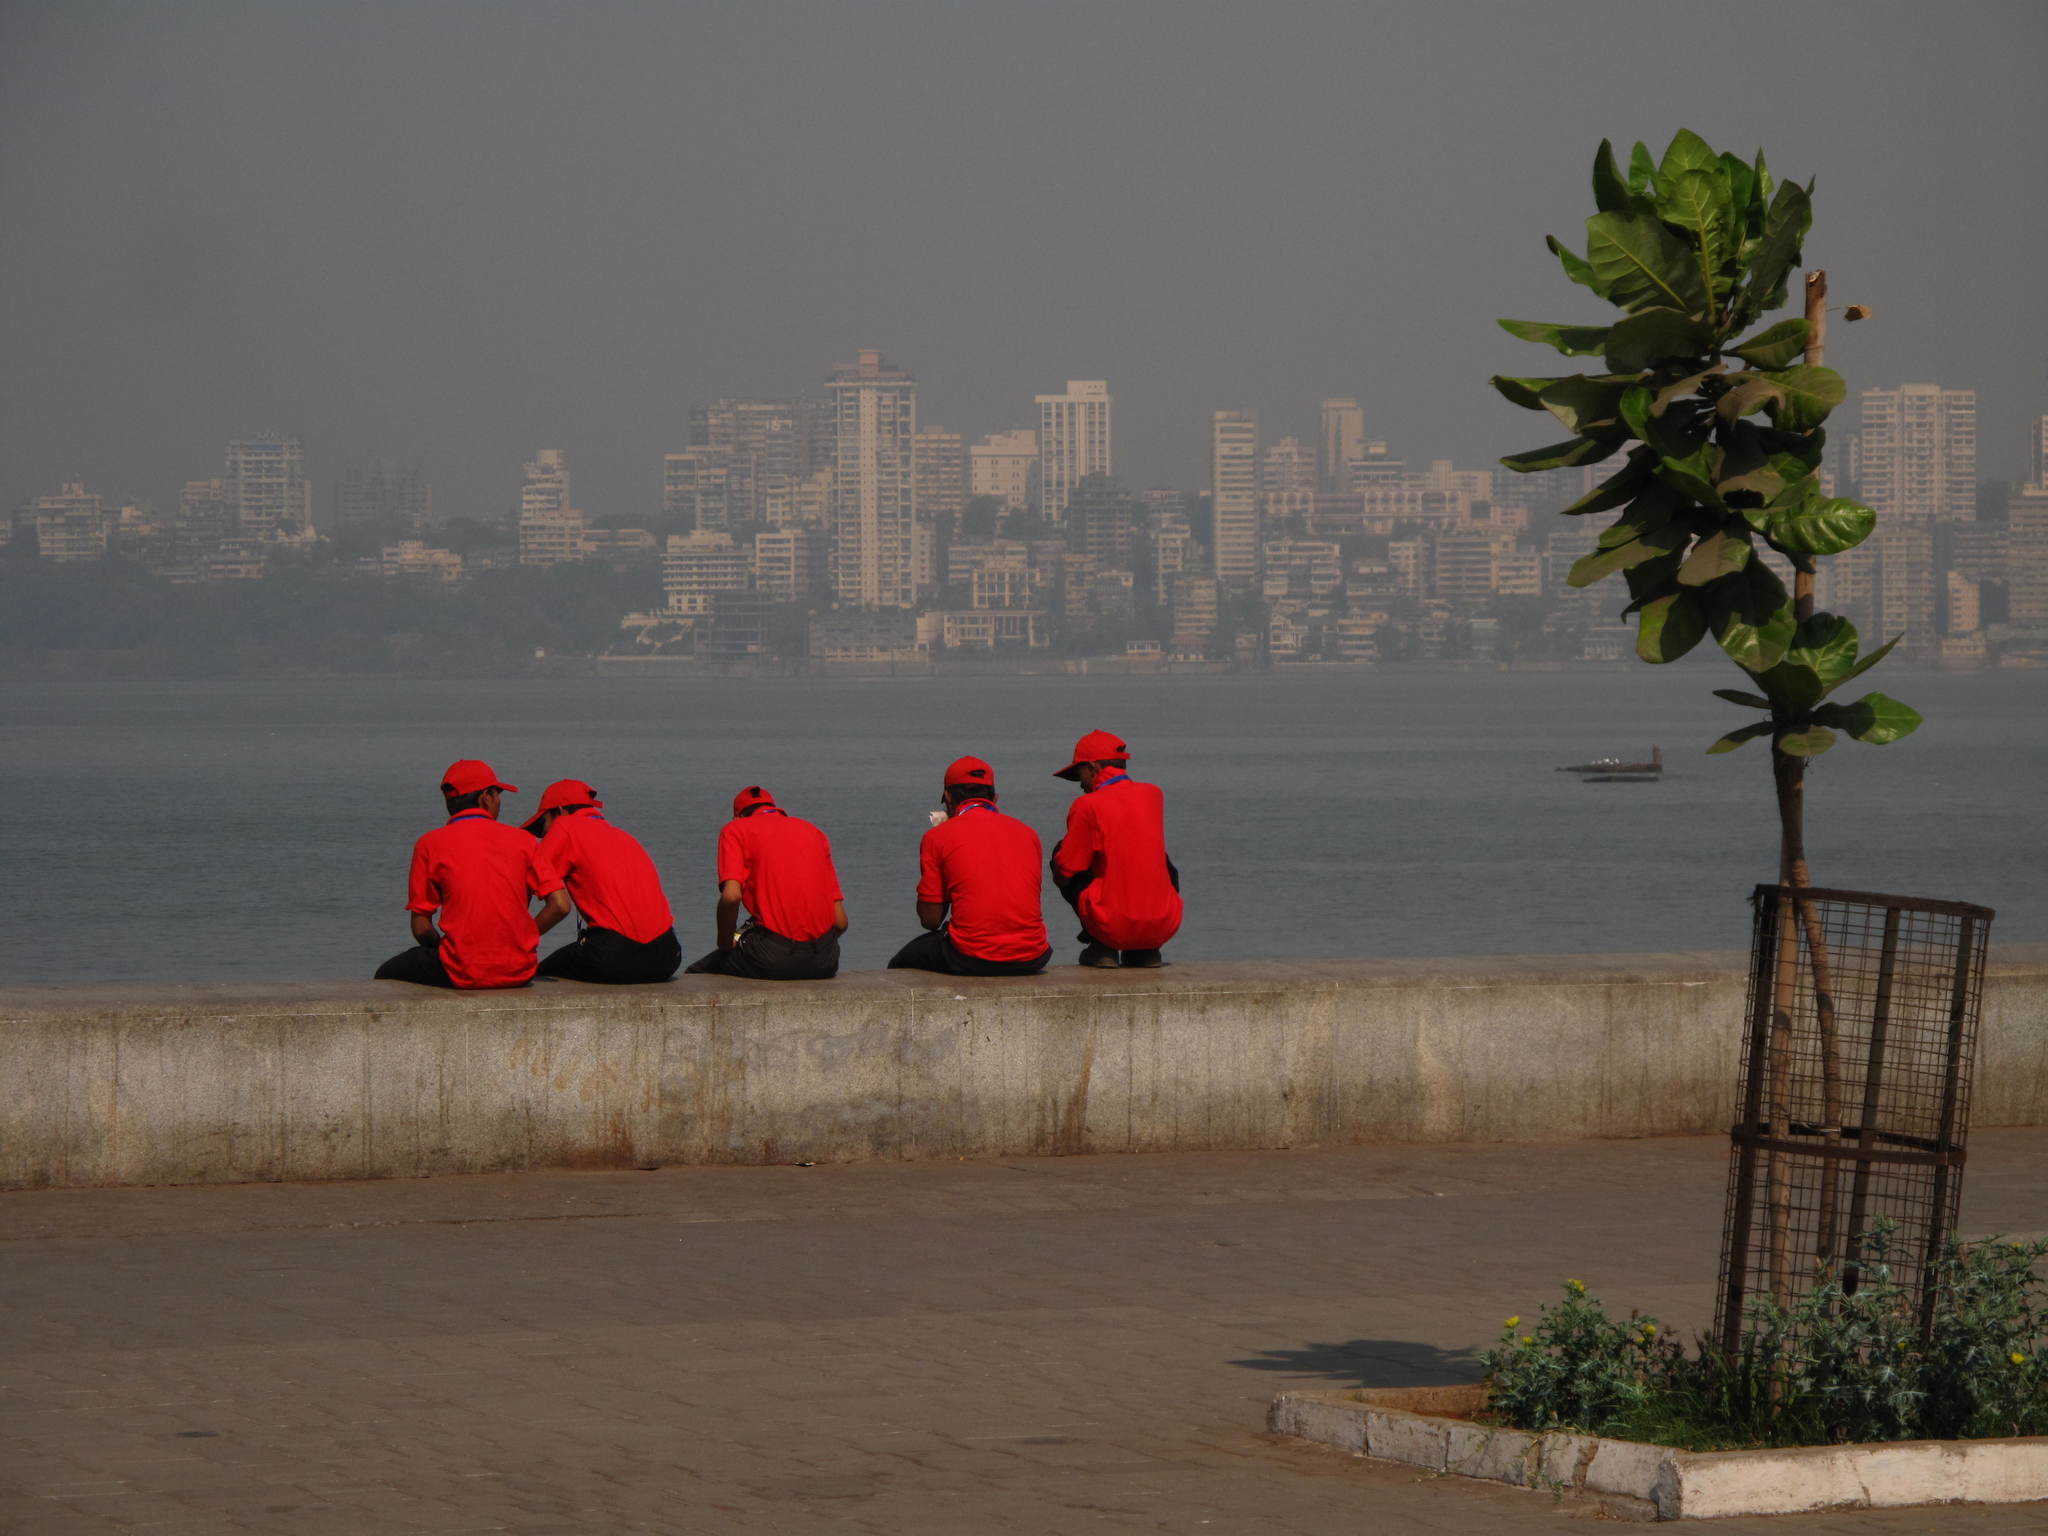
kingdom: Plantae
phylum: Tracheophyta
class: Magnoliopsida
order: Ericales
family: Lecythidaceae
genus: Barringtonia
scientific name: Barringtonia asiatica
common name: Mango-pine
